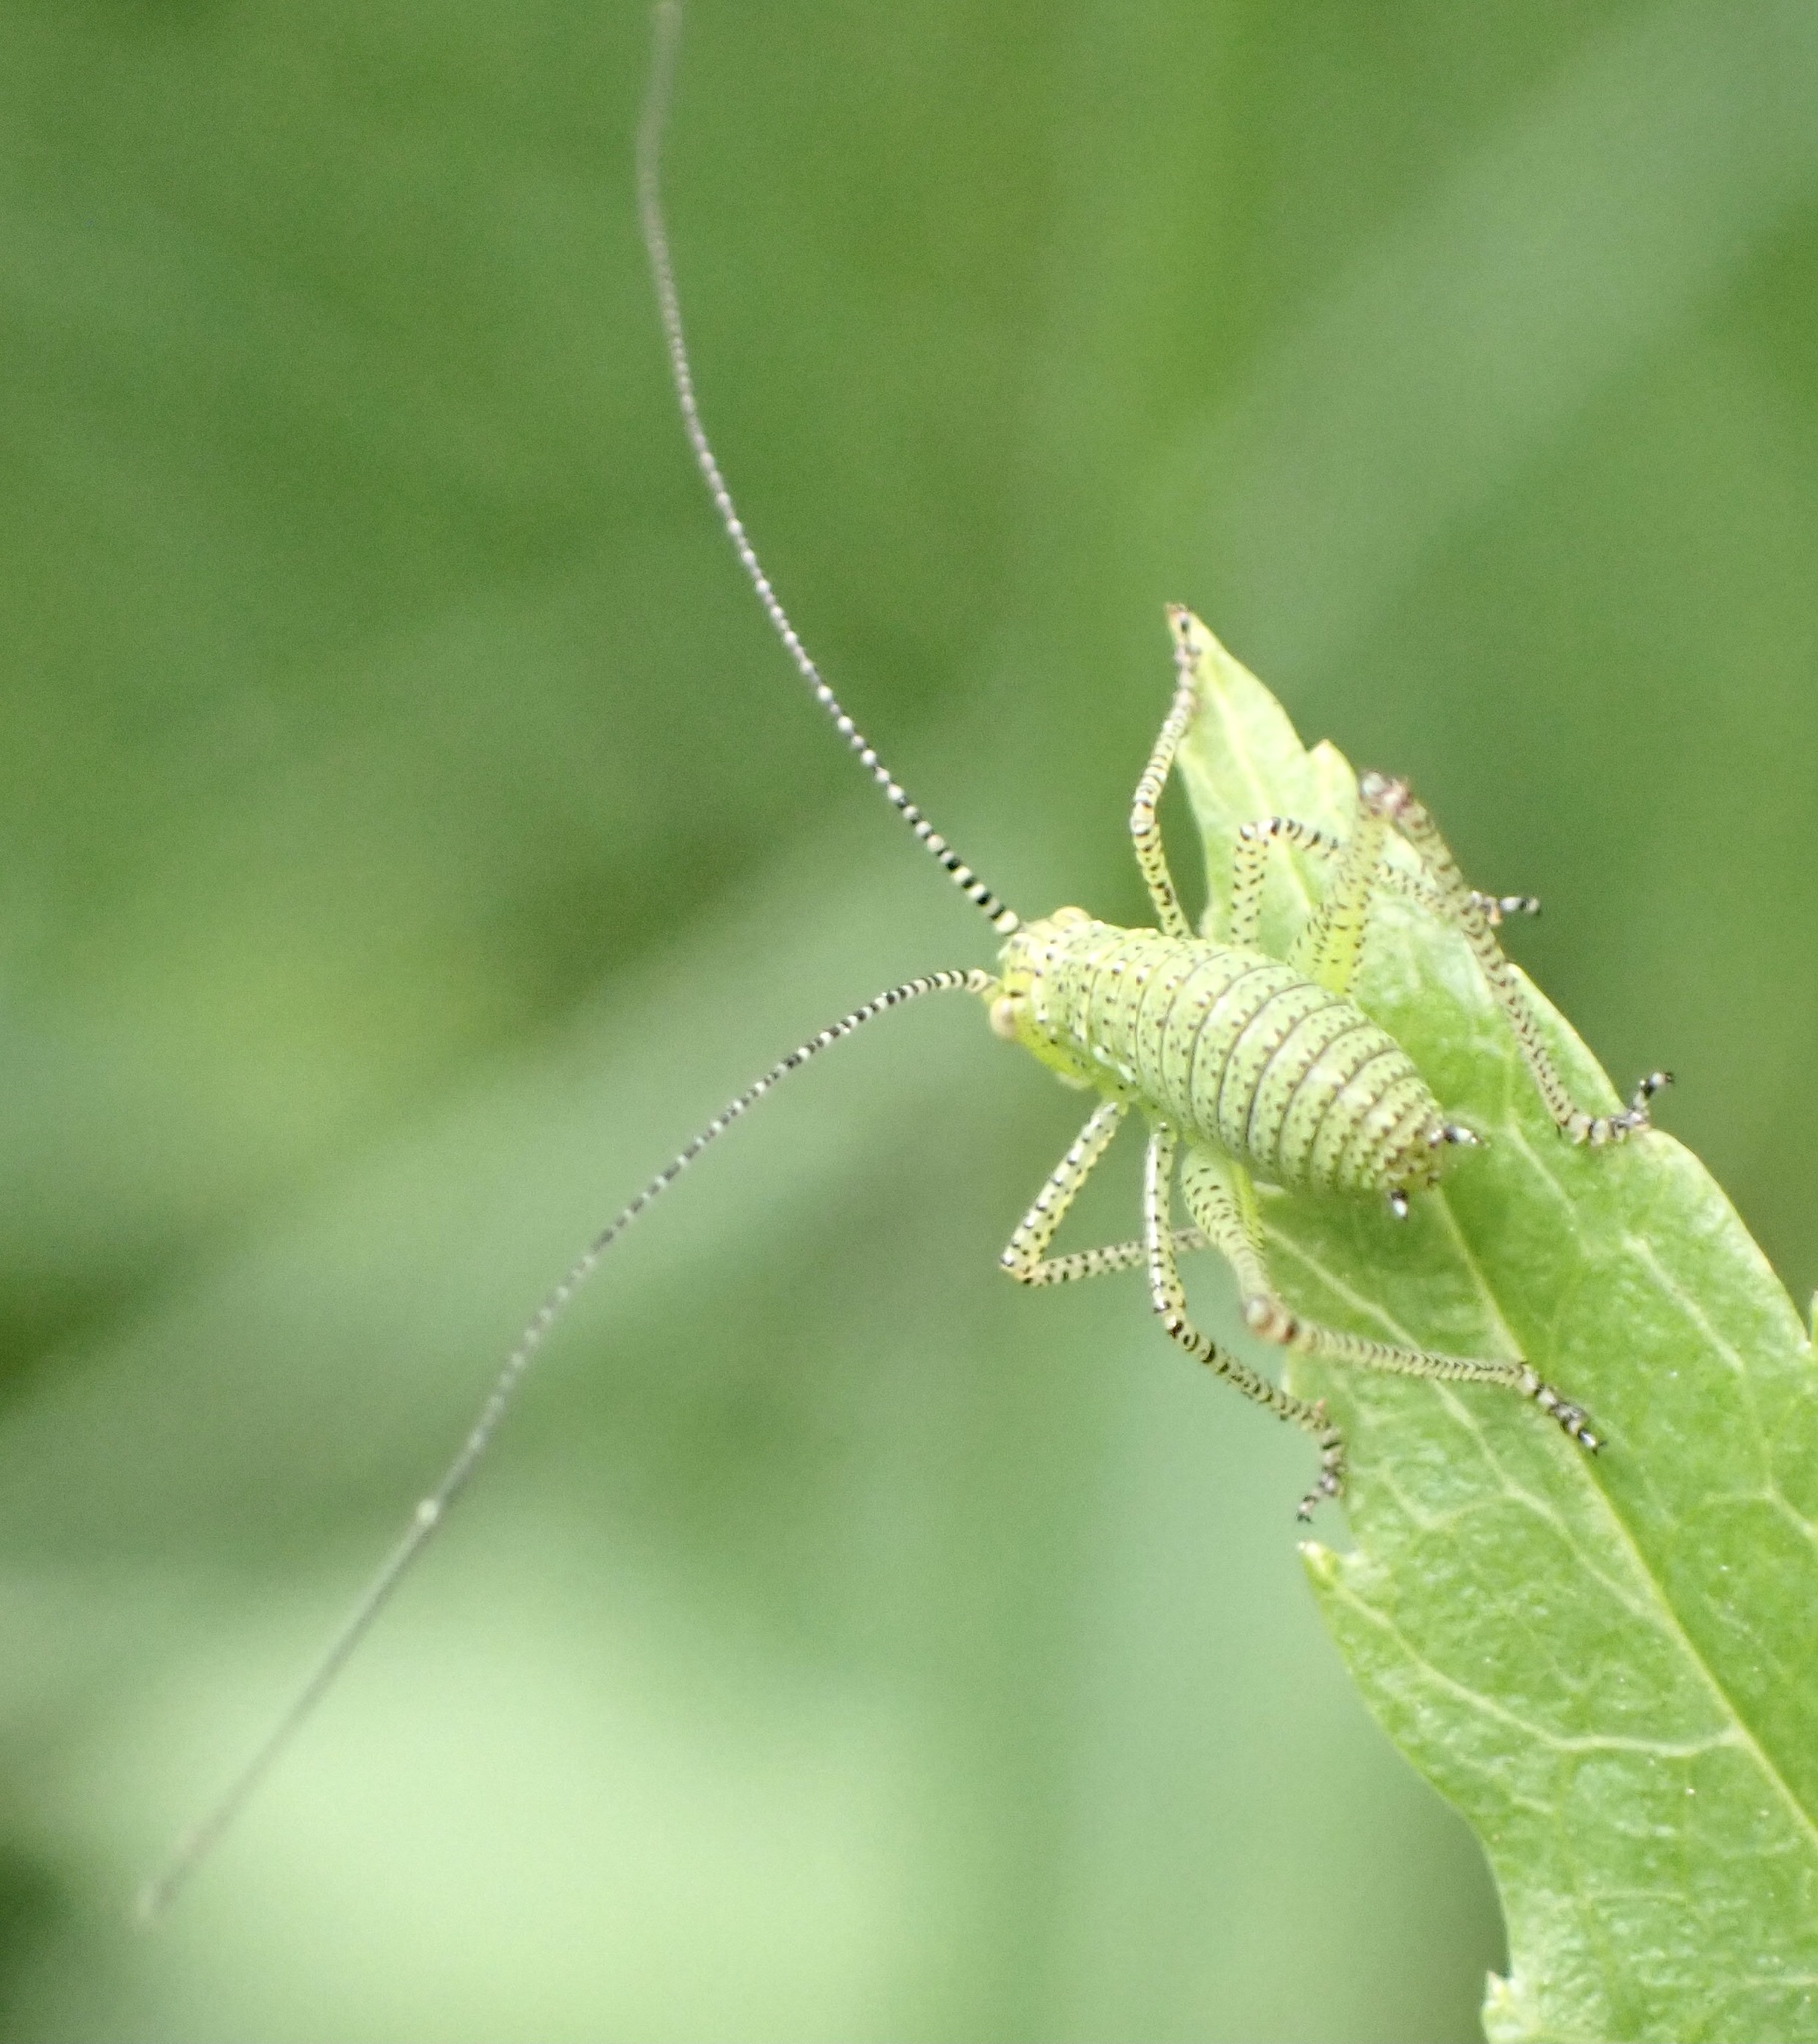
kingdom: Animalia
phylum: Arthropoda
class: Insecta
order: Orthoptera
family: Tettigoniidae
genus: Leptophyes
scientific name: Leptophyes punctatissima
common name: Speckled bush-cricket
